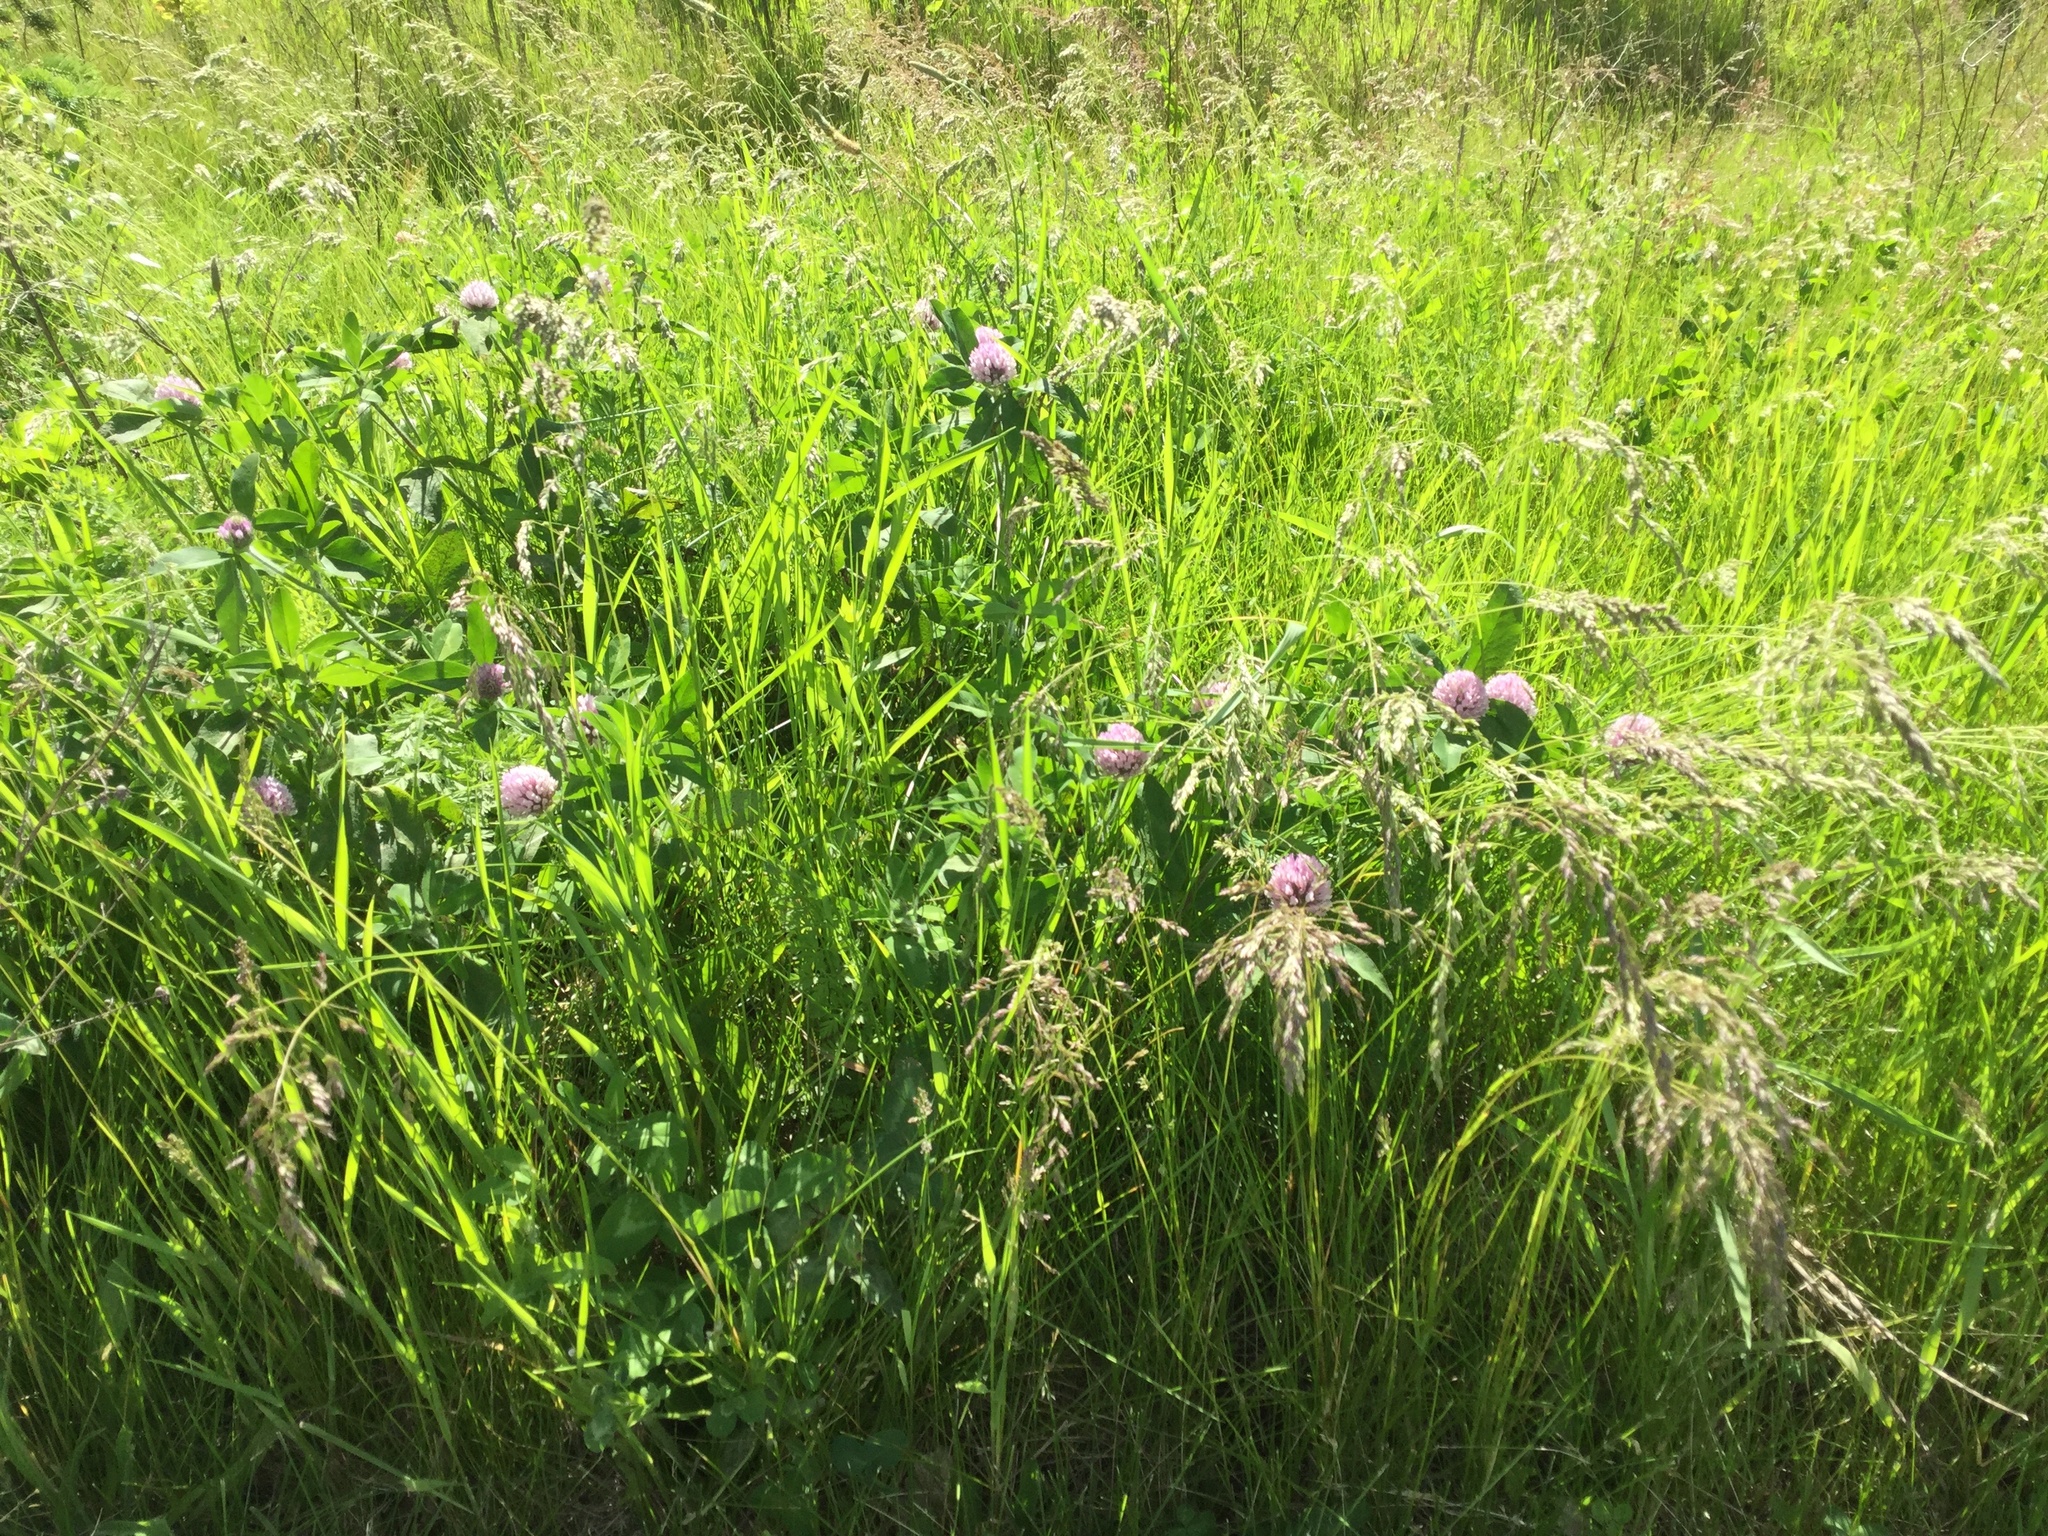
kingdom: Plantae
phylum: Tracheophyta
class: Magnoliopsida
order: Fabales
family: Fabaceae
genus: Trifolium
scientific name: Trifolium pratense
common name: Red clover
